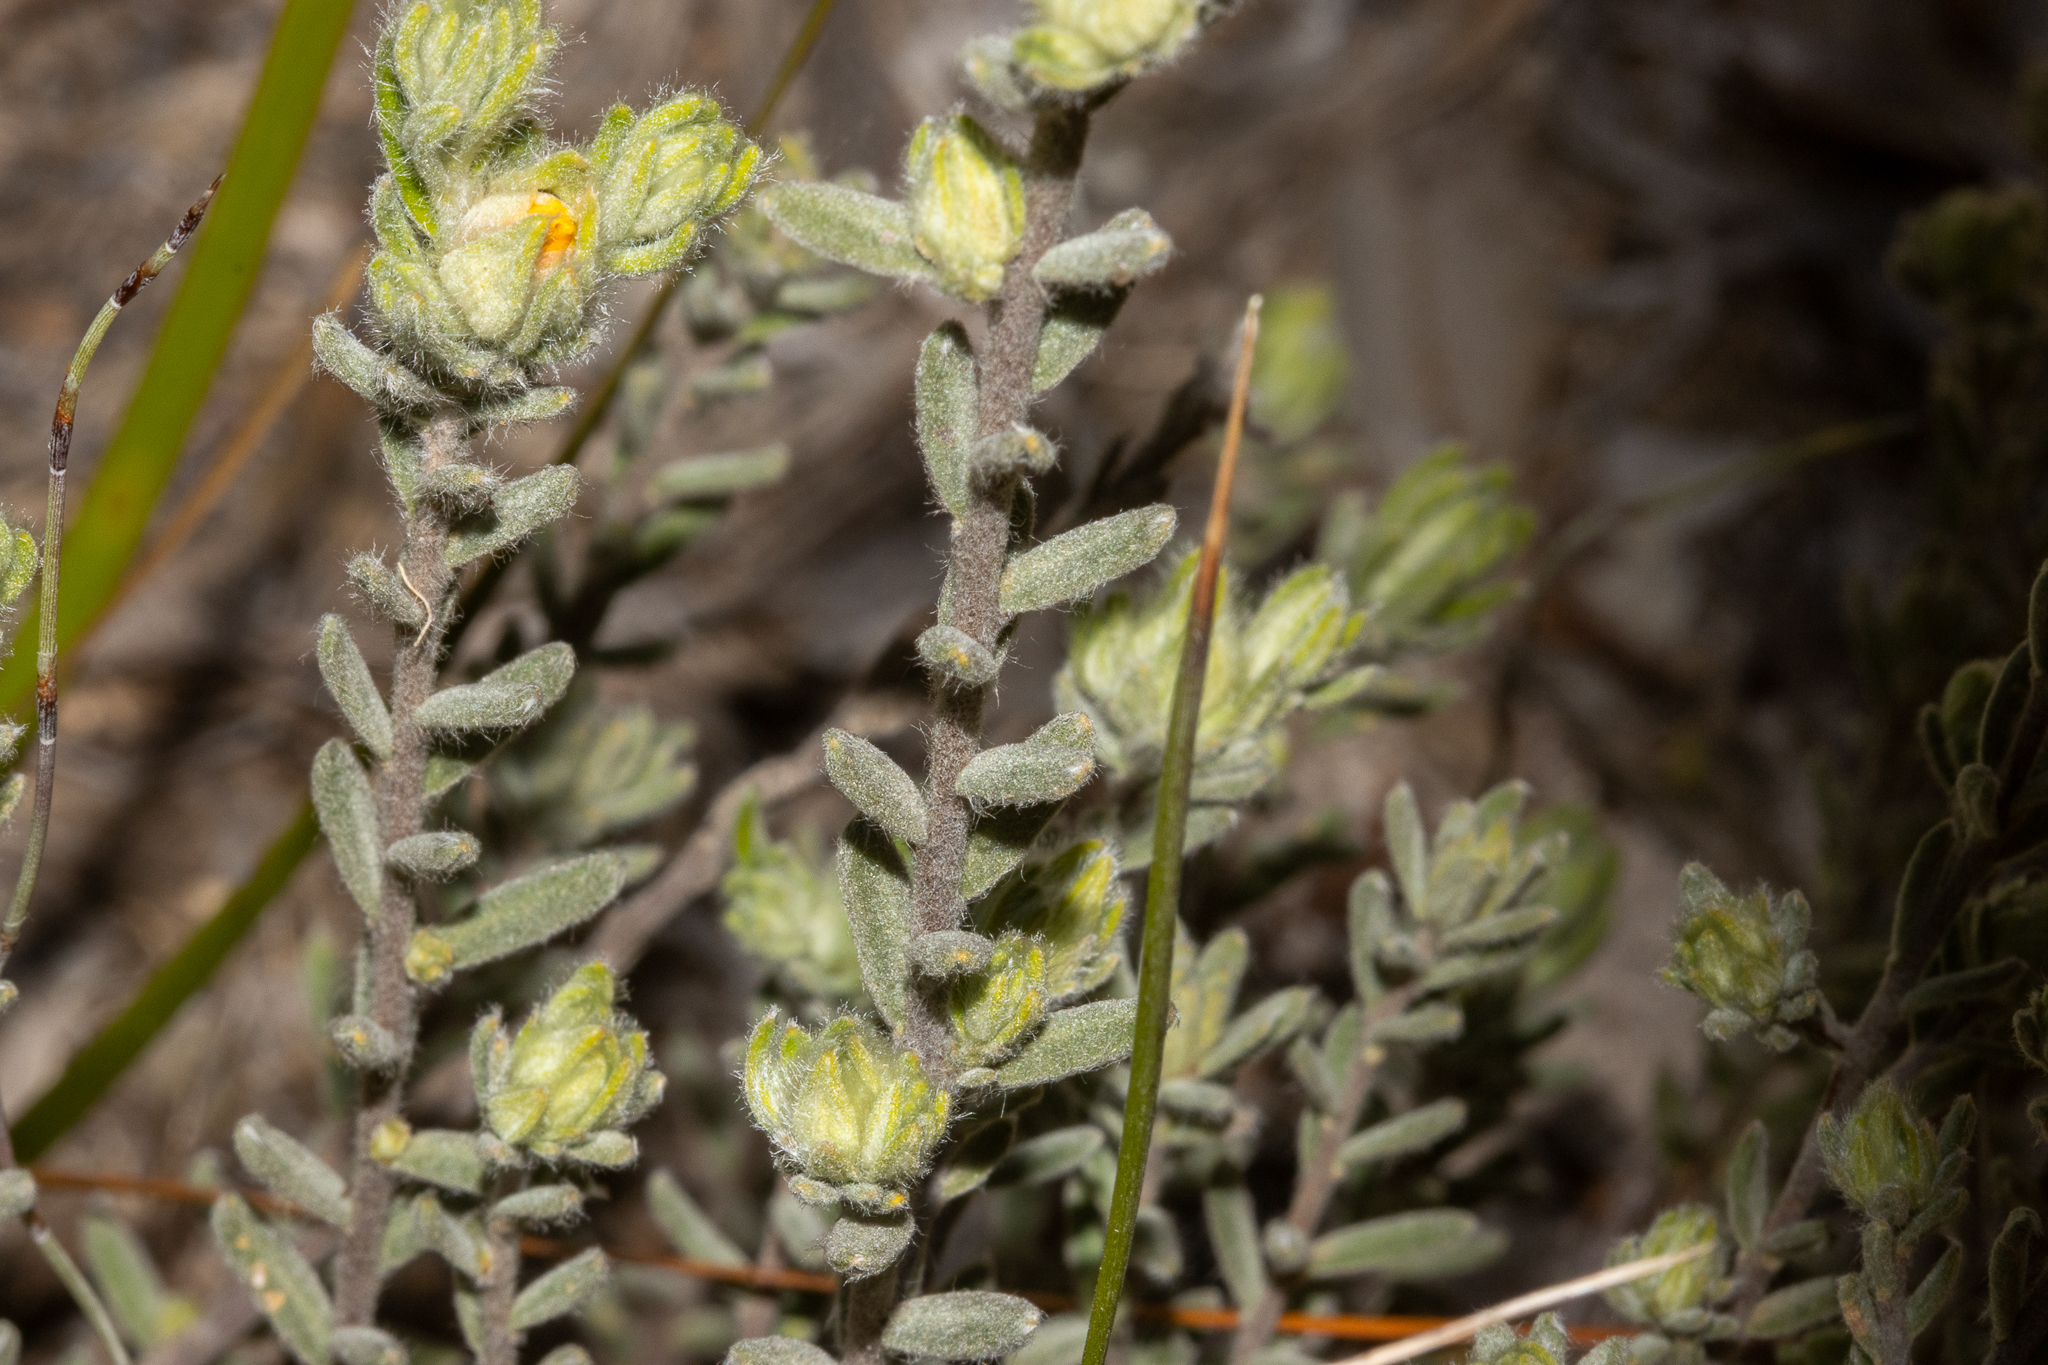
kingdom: Plantae
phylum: Tracheophyta
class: Magnoliopsida
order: Dilleniales
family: Dilleniaceae
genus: Hibbertia
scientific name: Hibbertia crinita
